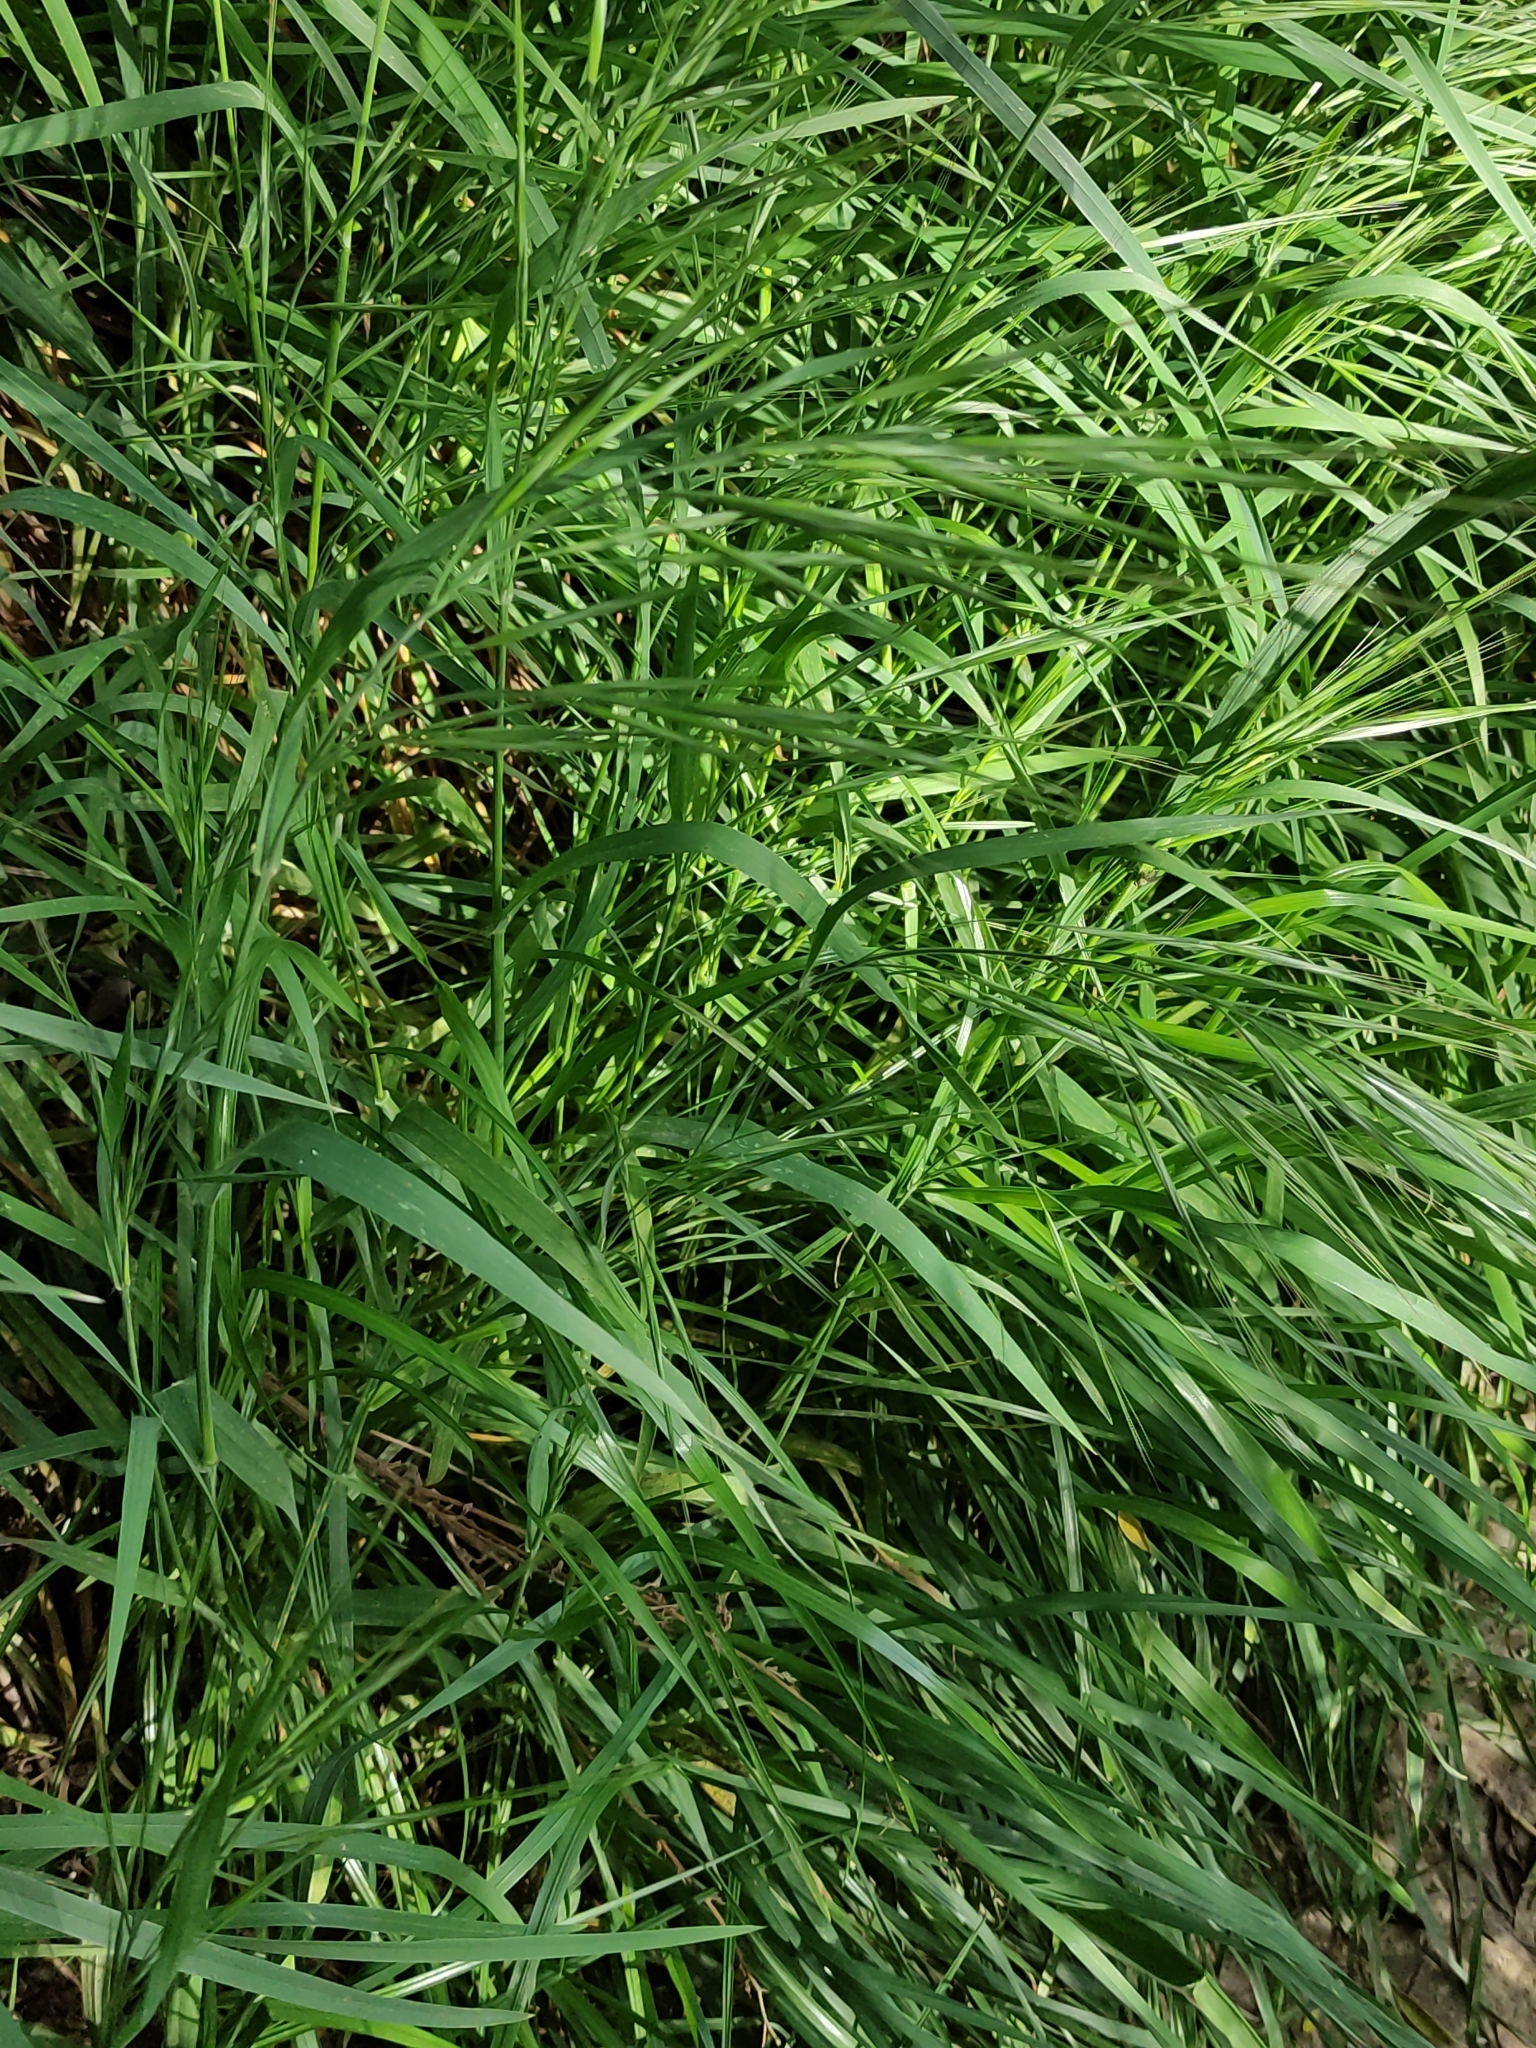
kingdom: Plantae
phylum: Tracheophyta
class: Liliopsida
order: Poales
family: Poaceae
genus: Bromus
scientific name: Bromus diandrus
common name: Ripgut brome
